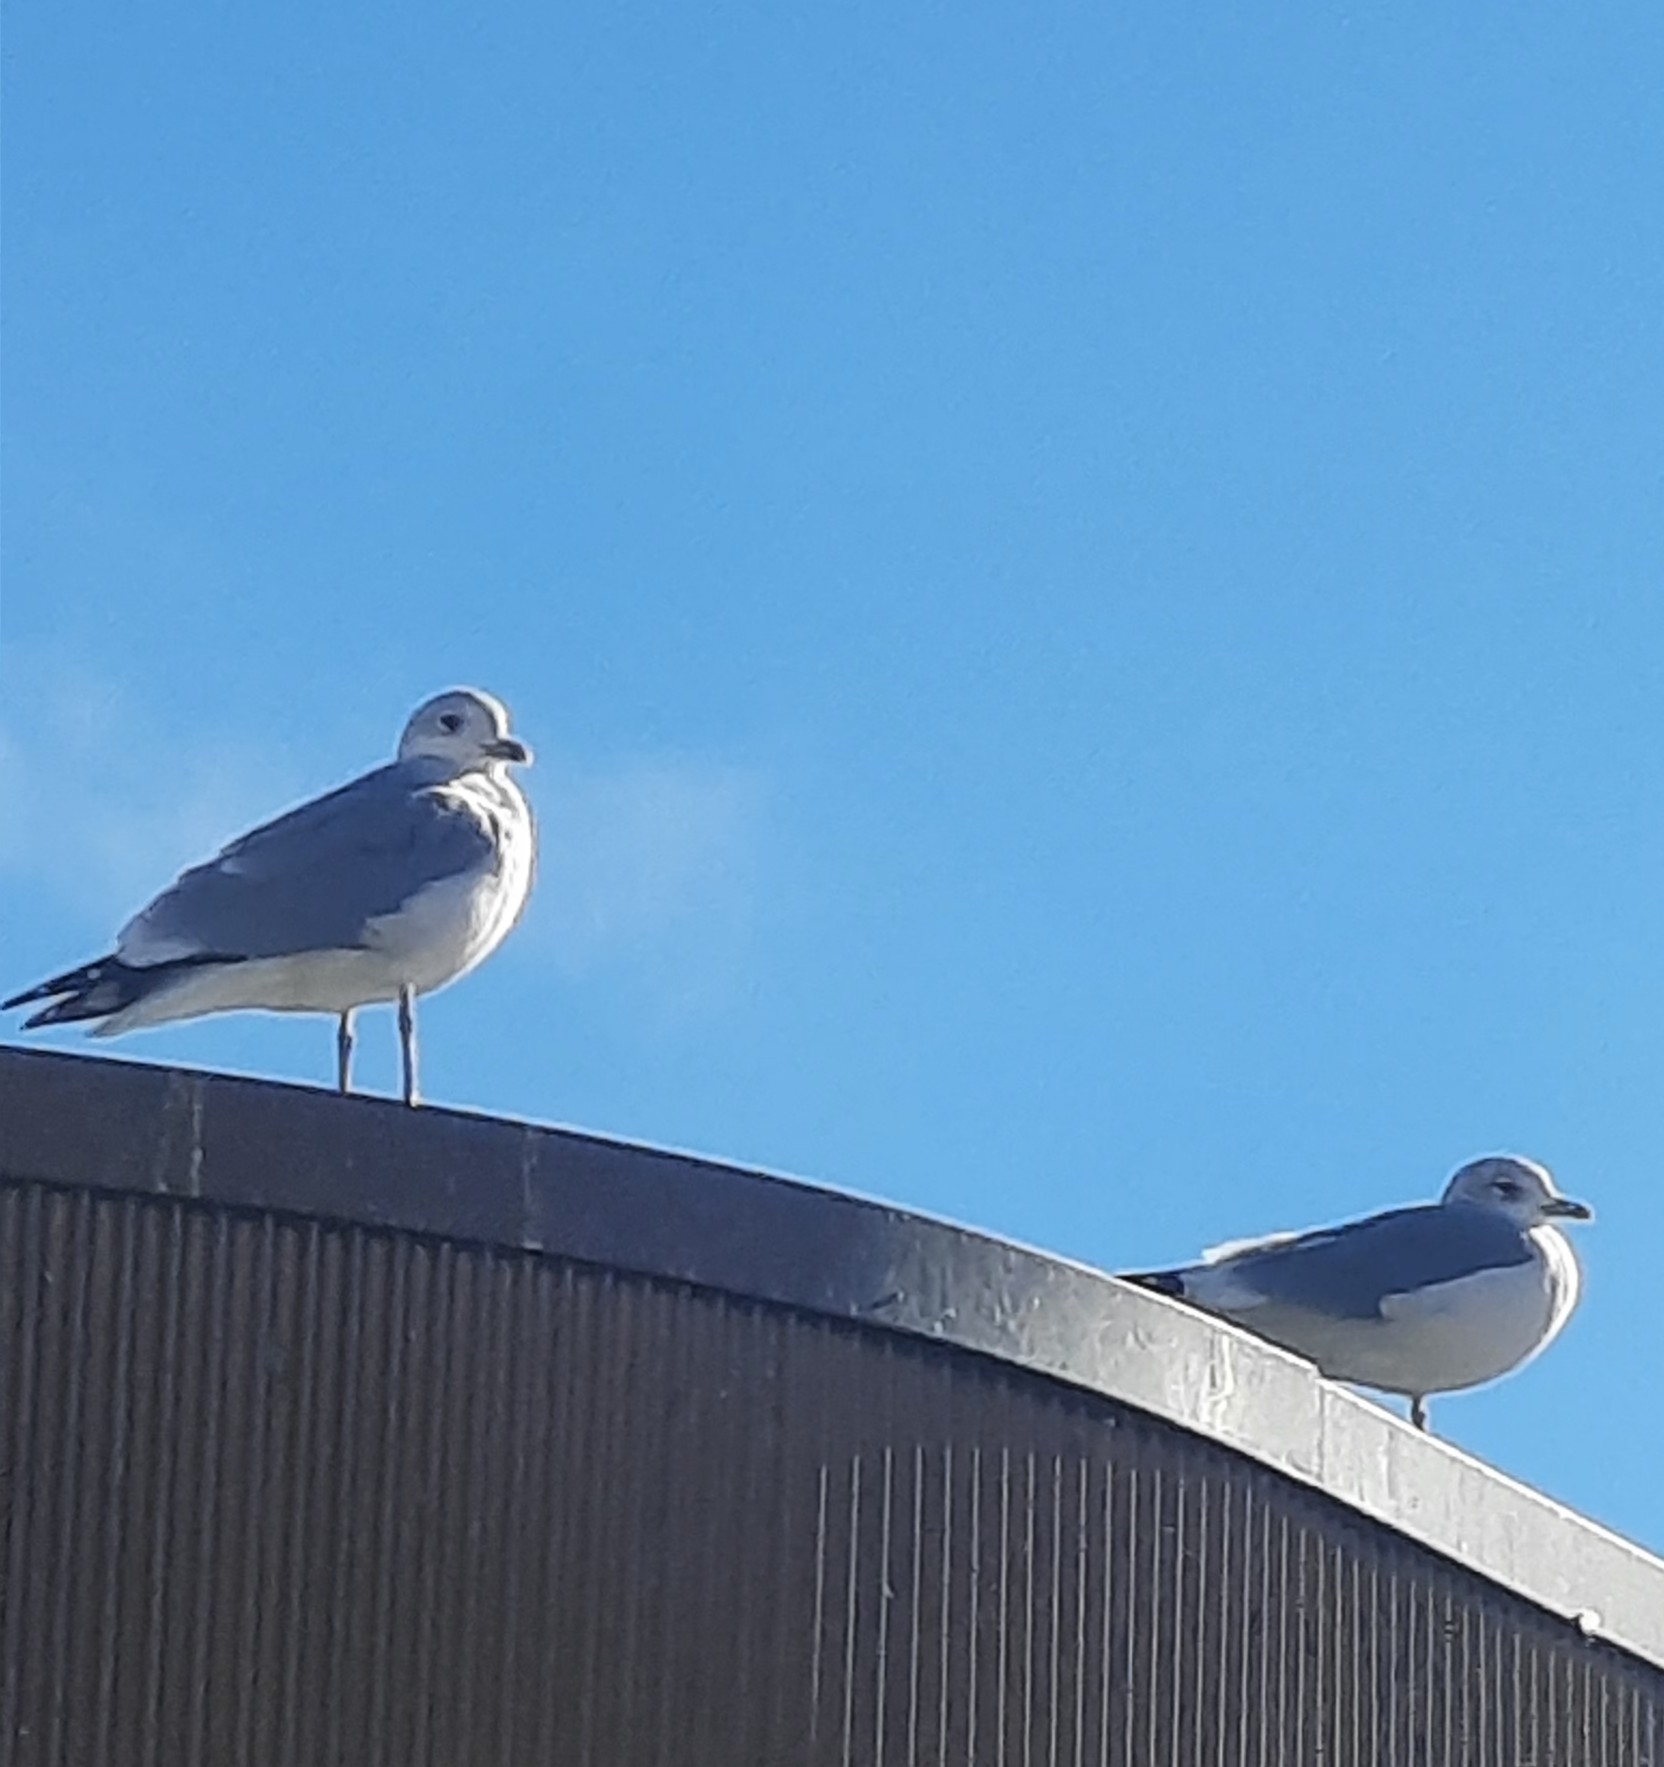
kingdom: Animalia
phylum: Chordata
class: Aves
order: Charadriiformes
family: Laridae
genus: Larus
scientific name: Larus canus
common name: Mew gull
